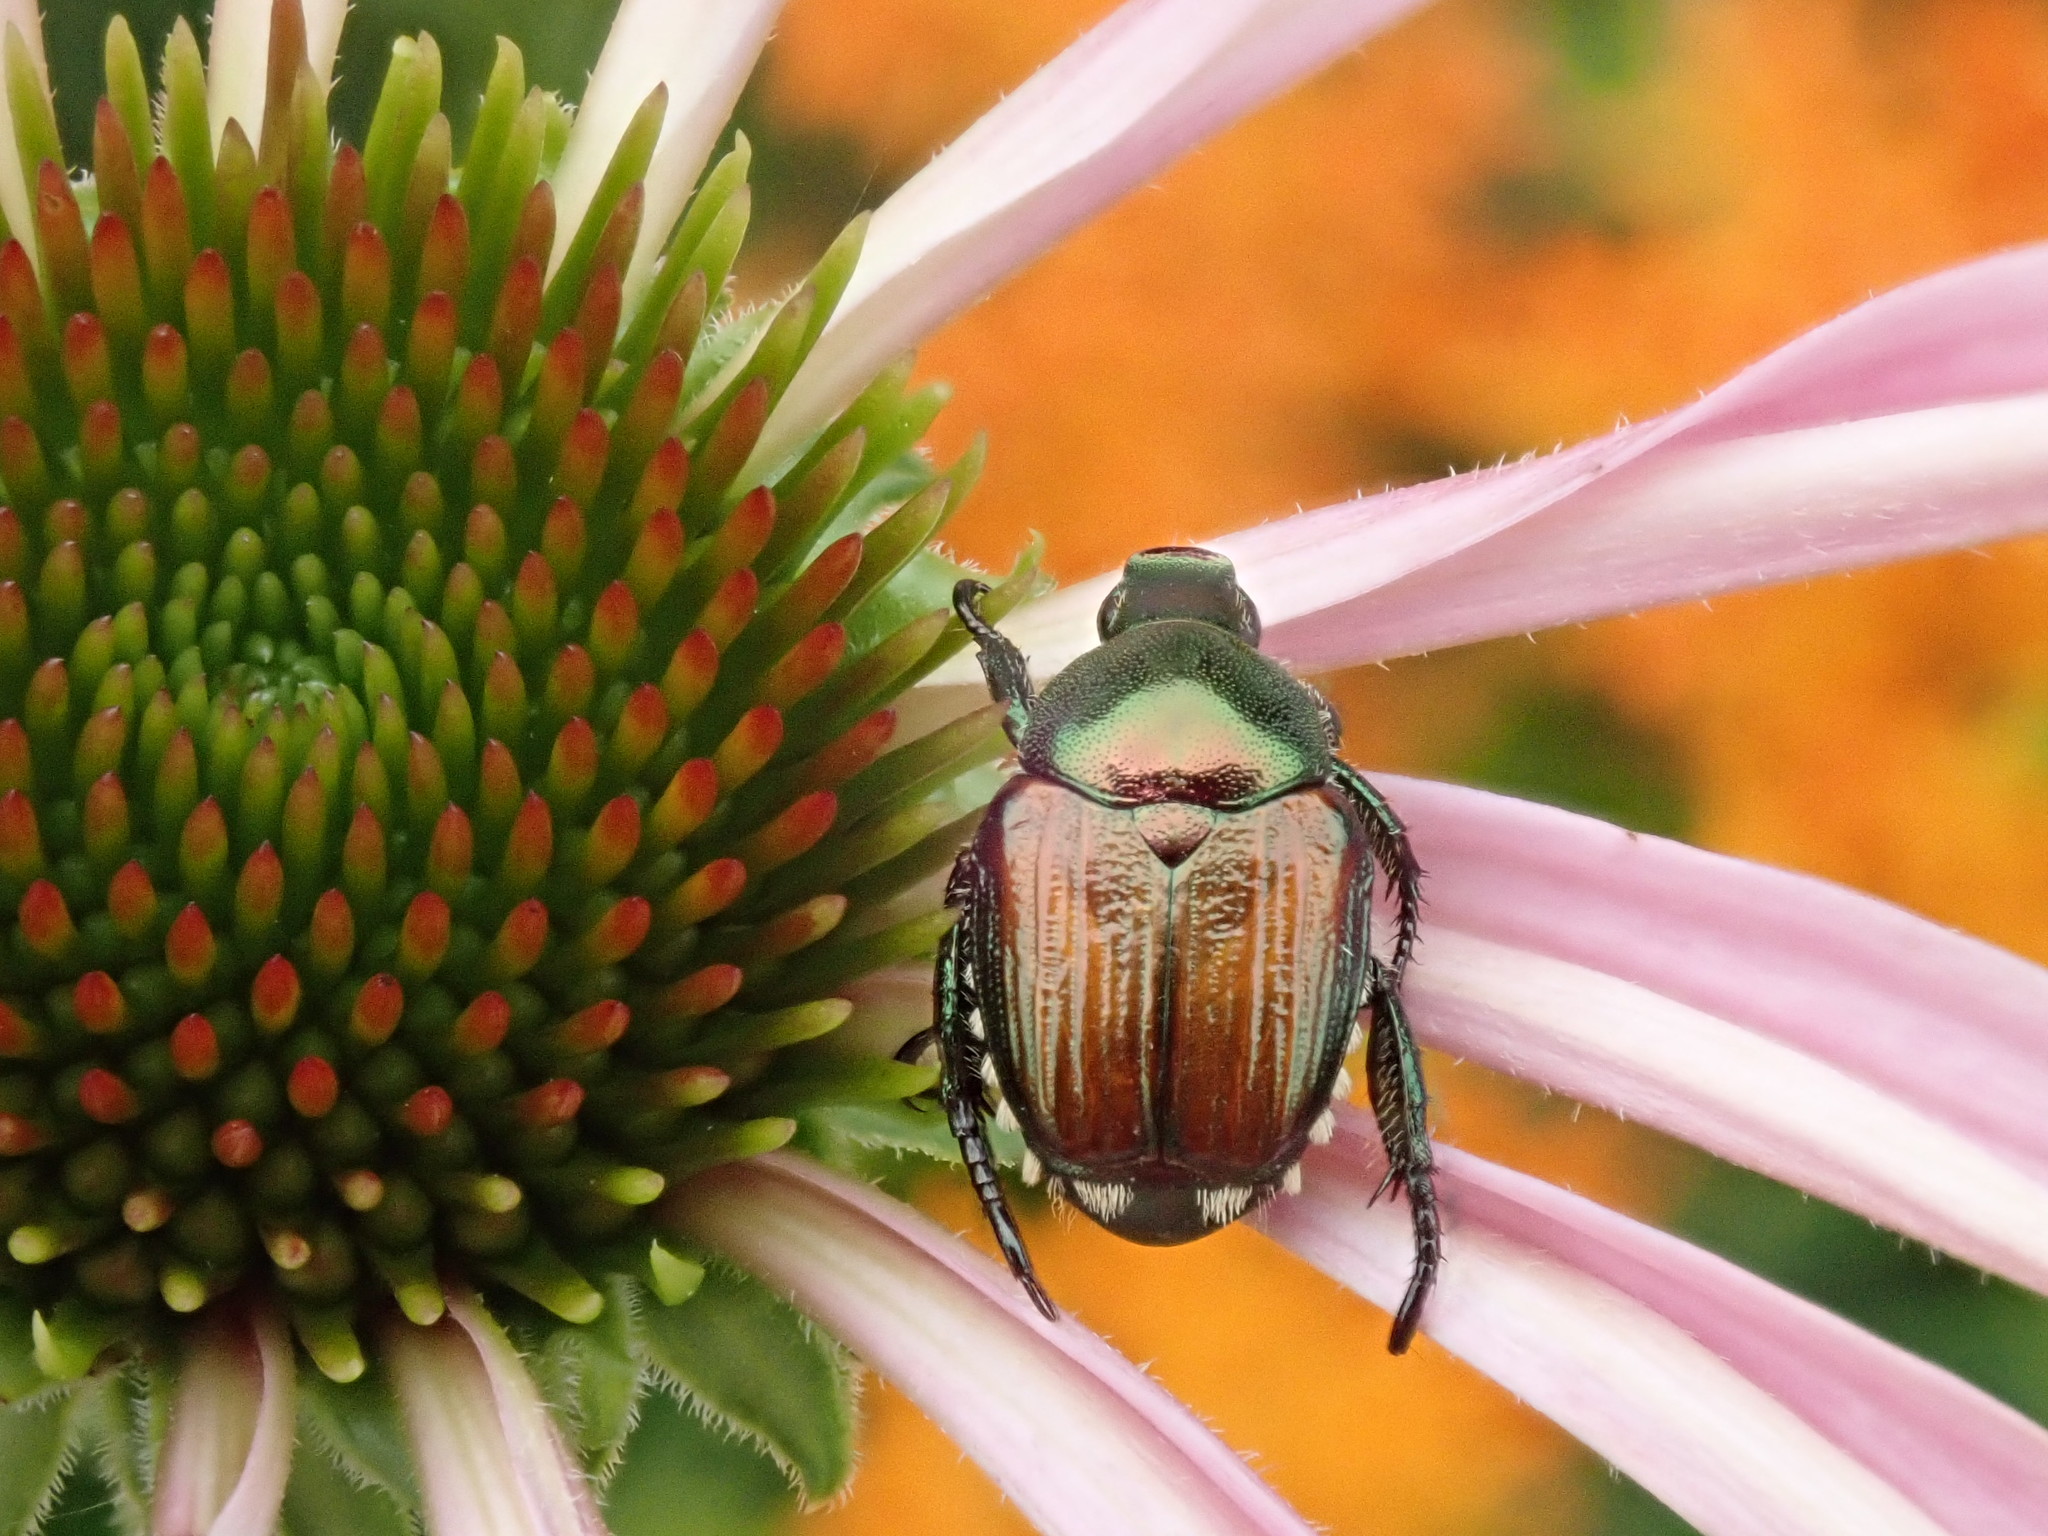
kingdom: Animalia
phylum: Arthropoda
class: Insecta
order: Coleoptera
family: Scarabaeidae
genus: Popillia
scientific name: Popillia japonica
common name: Japanese beetle
